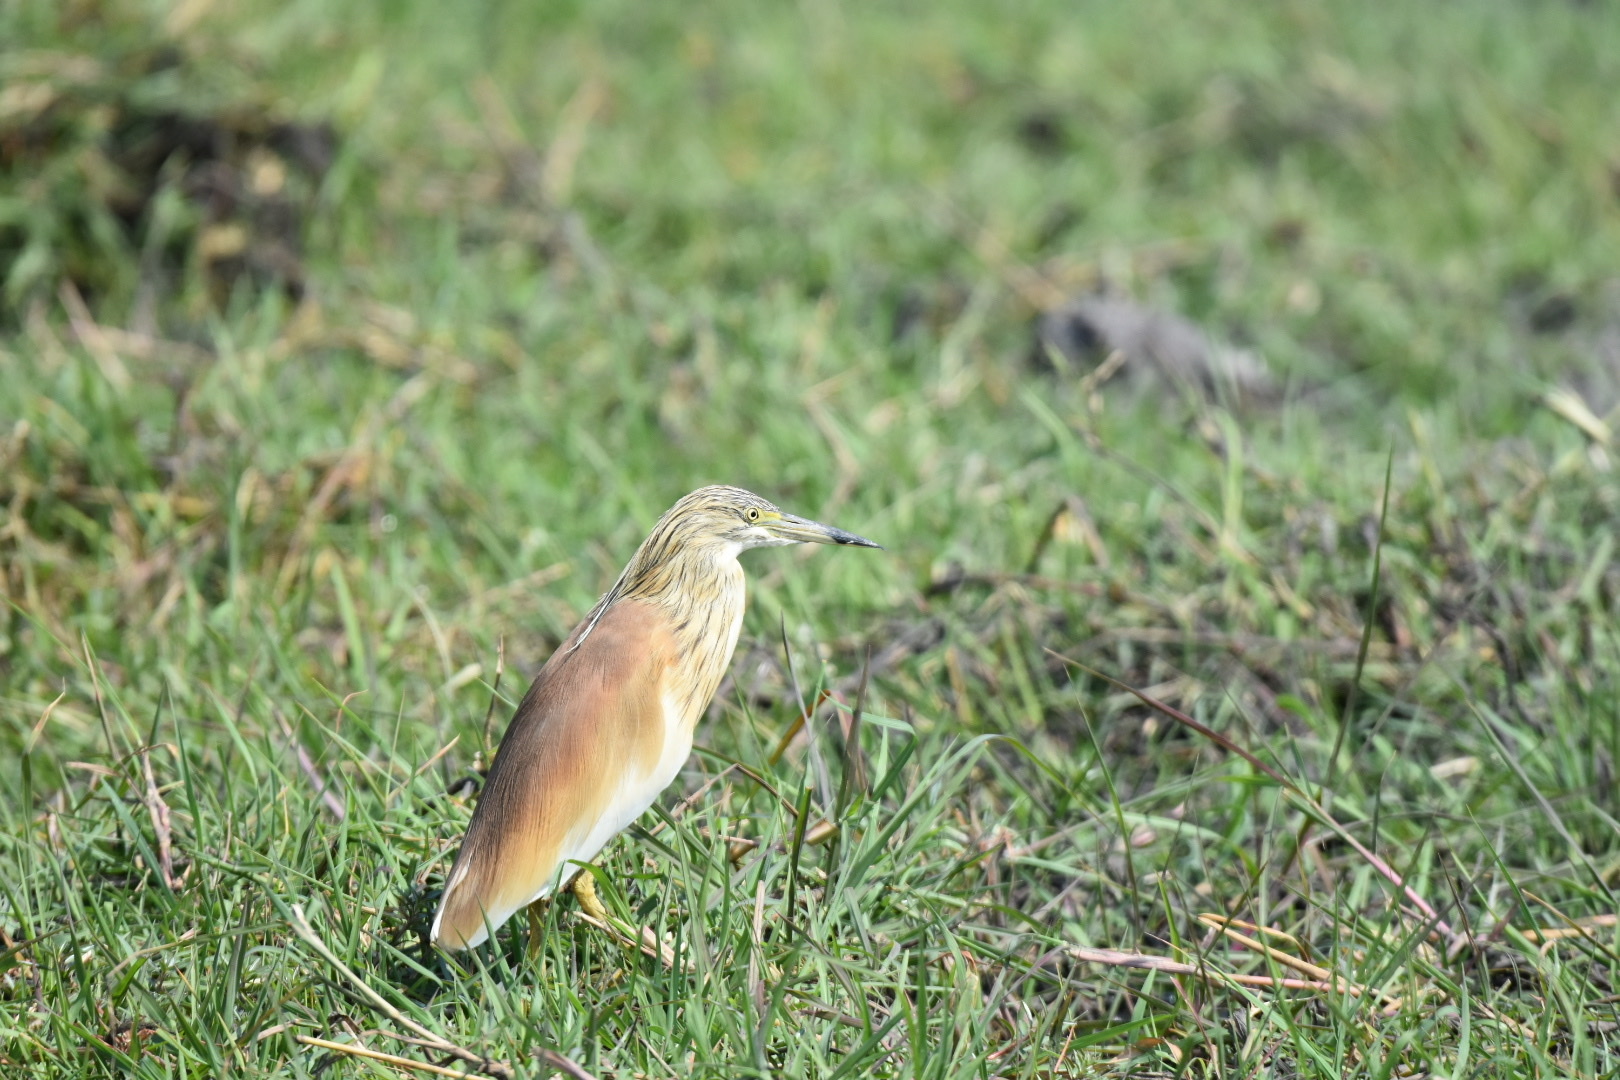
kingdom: Animalia
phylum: Chordata
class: Aves
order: Pelecaniformes
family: Ardeidae
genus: Ardeola
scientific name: Ardeola ralloides
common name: Squacco heron
